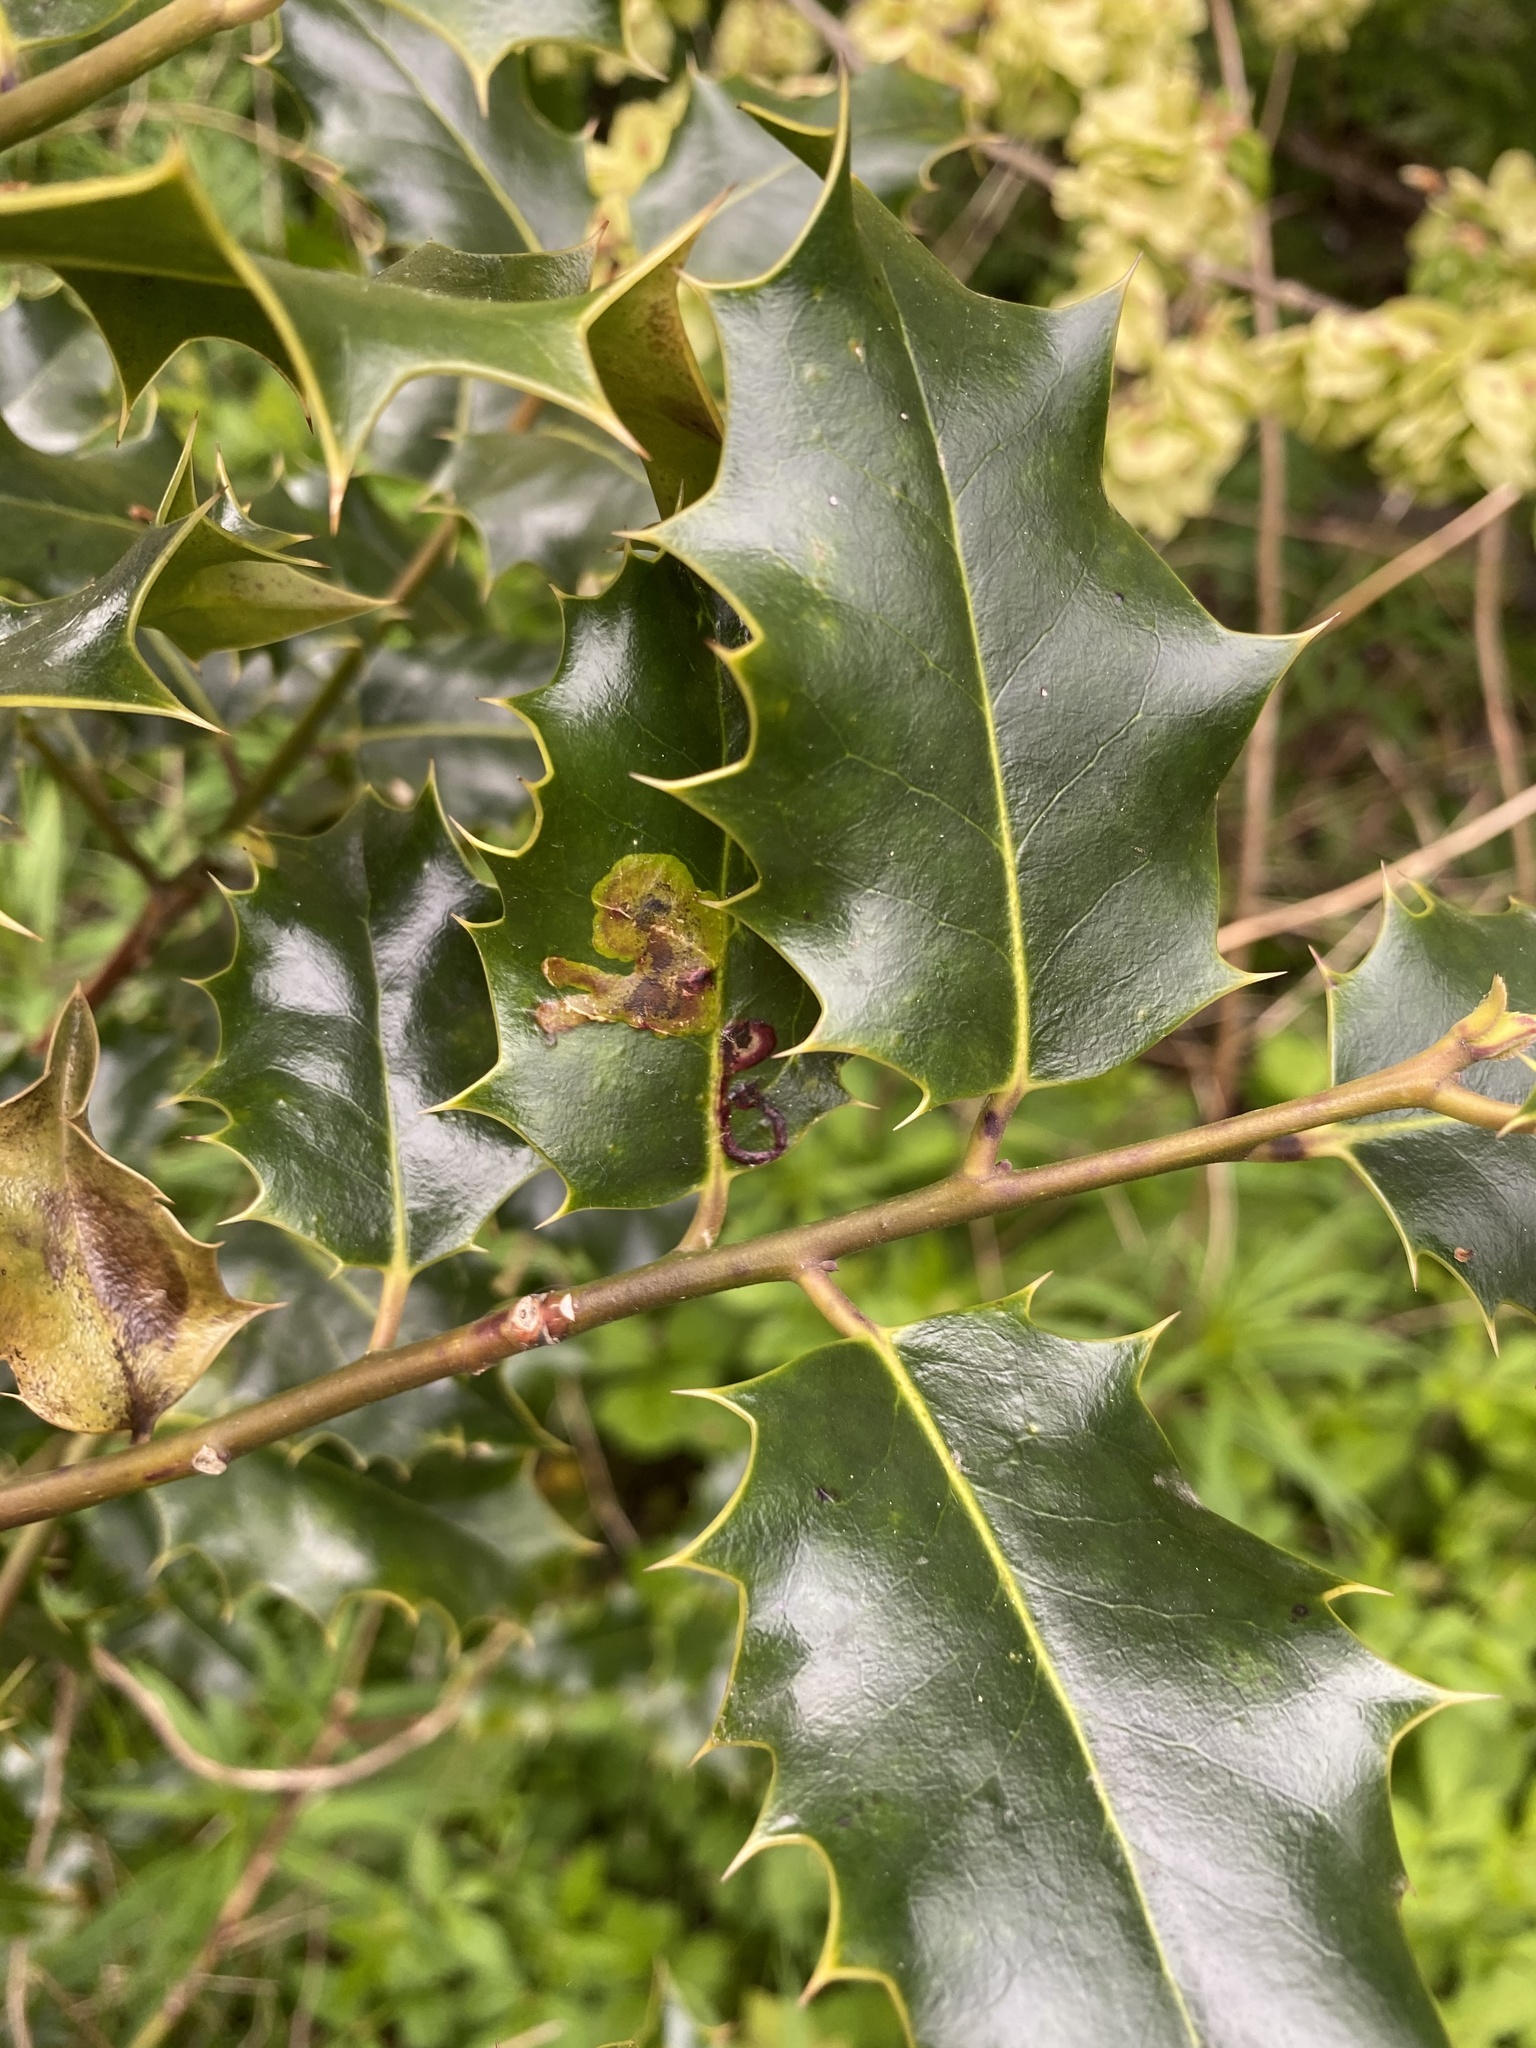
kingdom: Animalia
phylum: Arthropoda
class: Insecta
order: Diptera
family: Agromyzidae
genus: Phytomyza
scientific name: Phytomyza ilicis
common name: Holly leafminer
